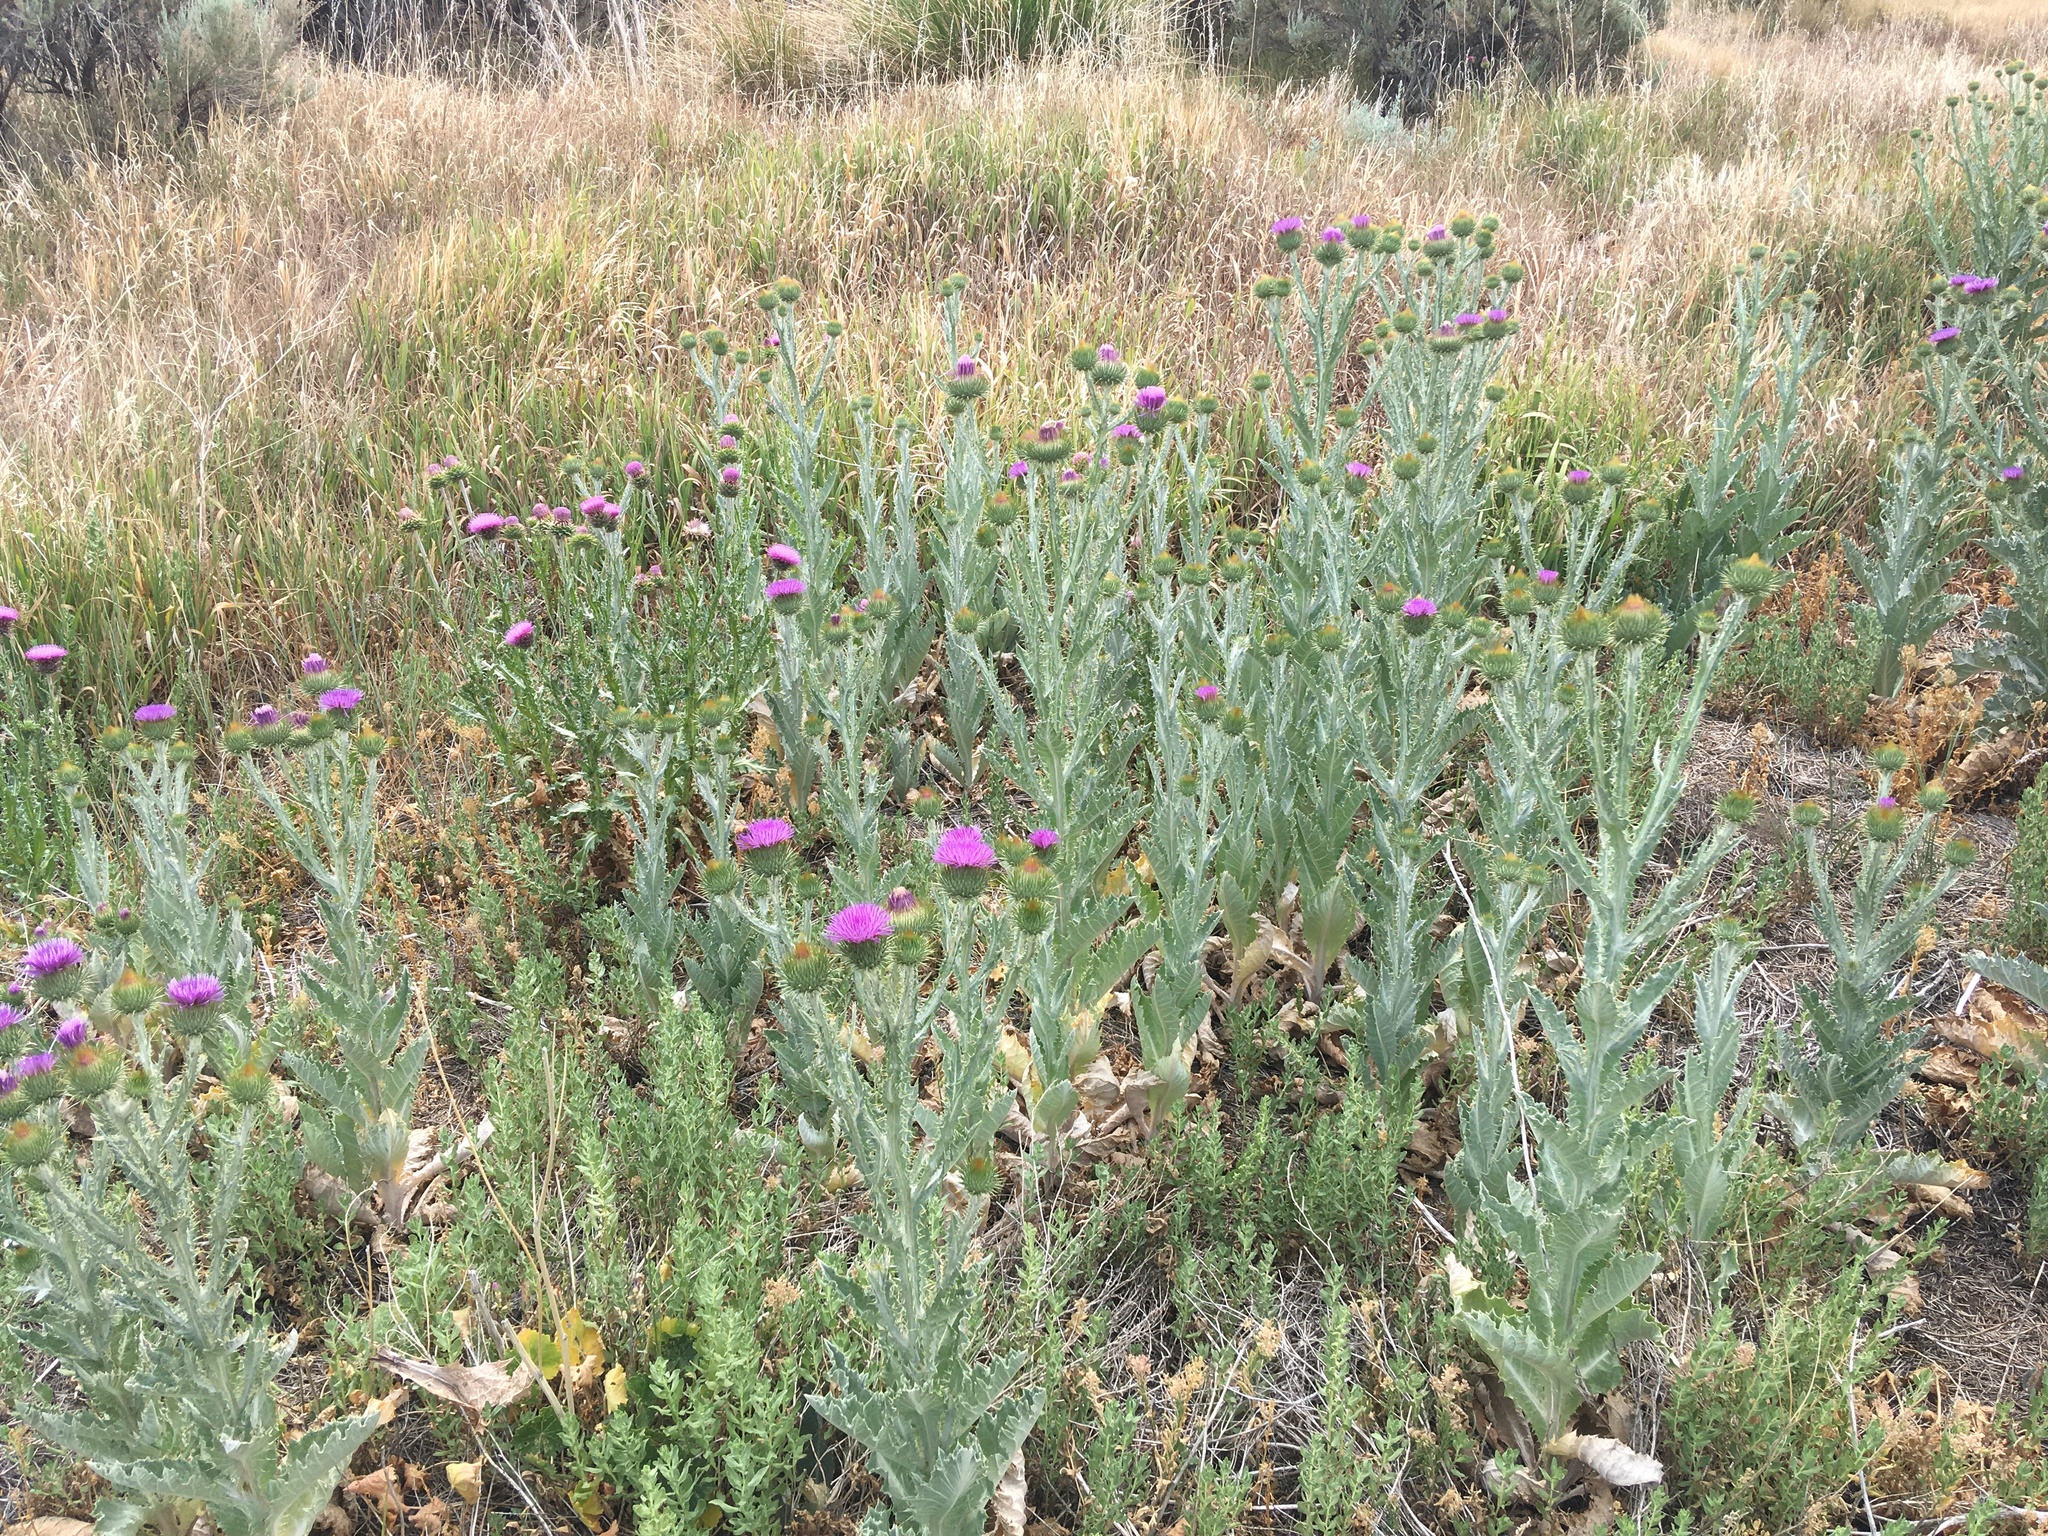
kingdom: Plantae
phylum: Tracheophyta
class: Magnoliopsida
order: Asterales
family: Asteraceae
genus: Onopordum
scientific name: Onopordum acanthium
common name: Scotch thistle
